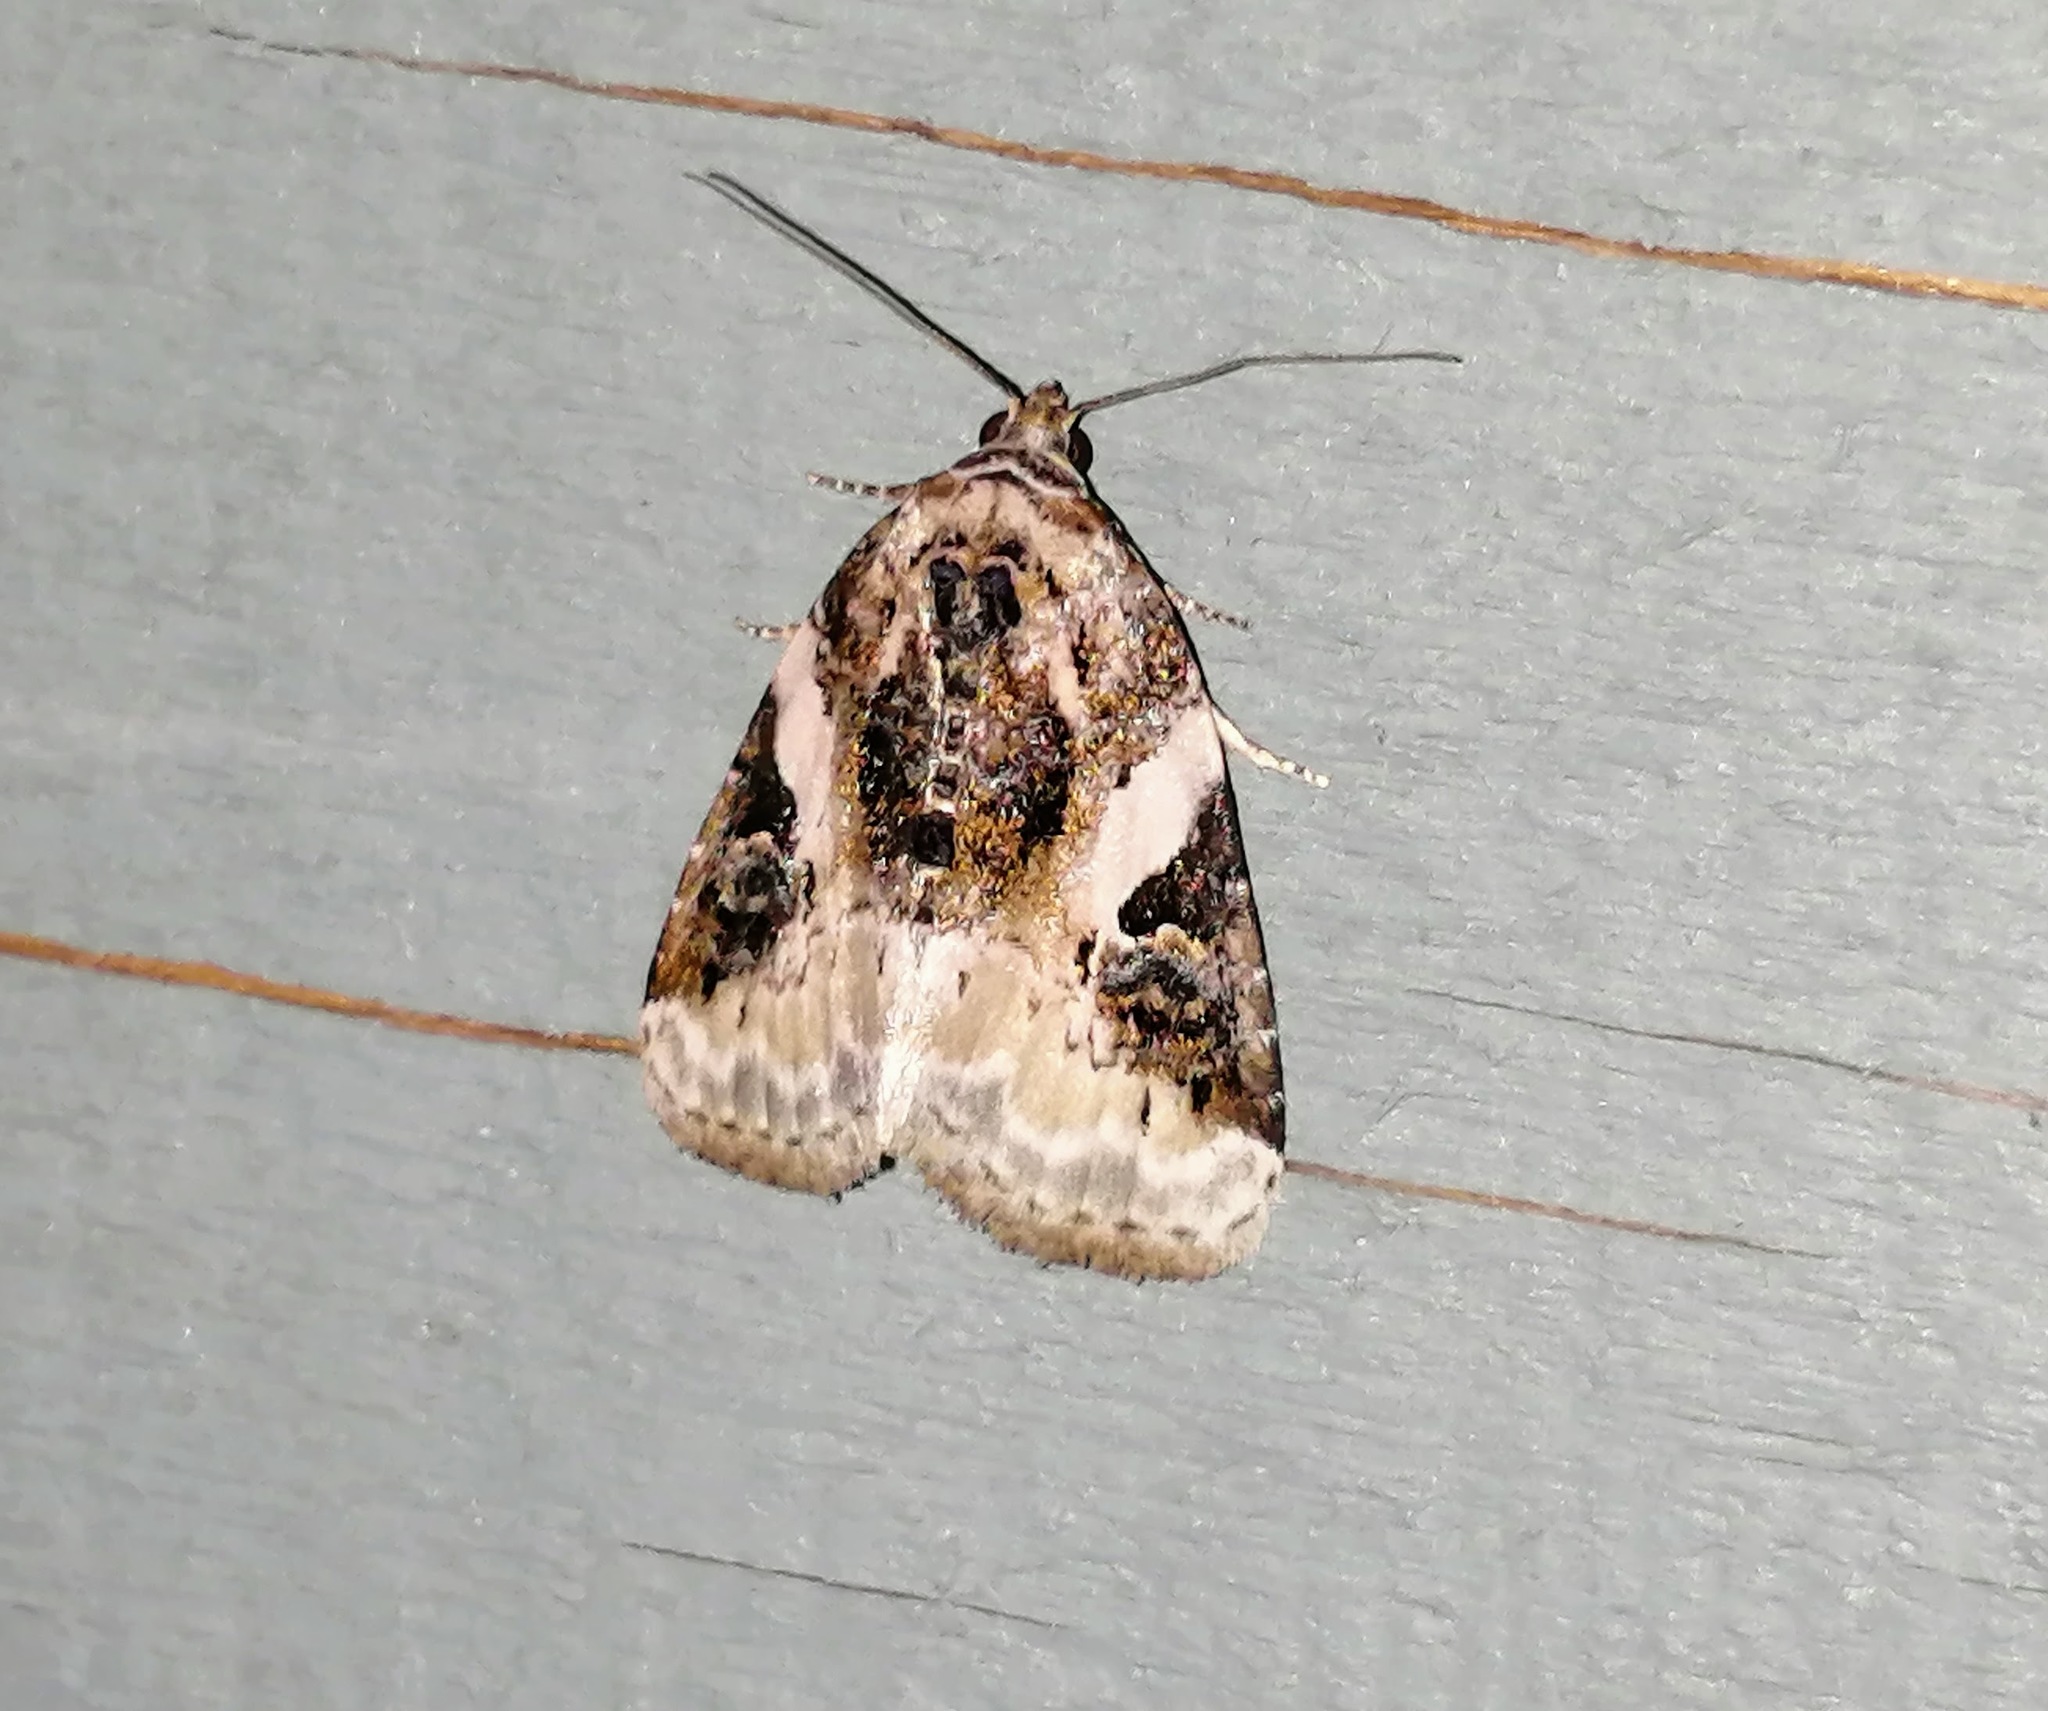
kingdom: Animalia
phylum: Arthropoda
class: Insecta
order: Lepidoptera
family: Noctuidae
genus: Pseudeustrotia
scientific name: Pseudeustrotia carneola
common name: Pink-barred lithacodia moth
